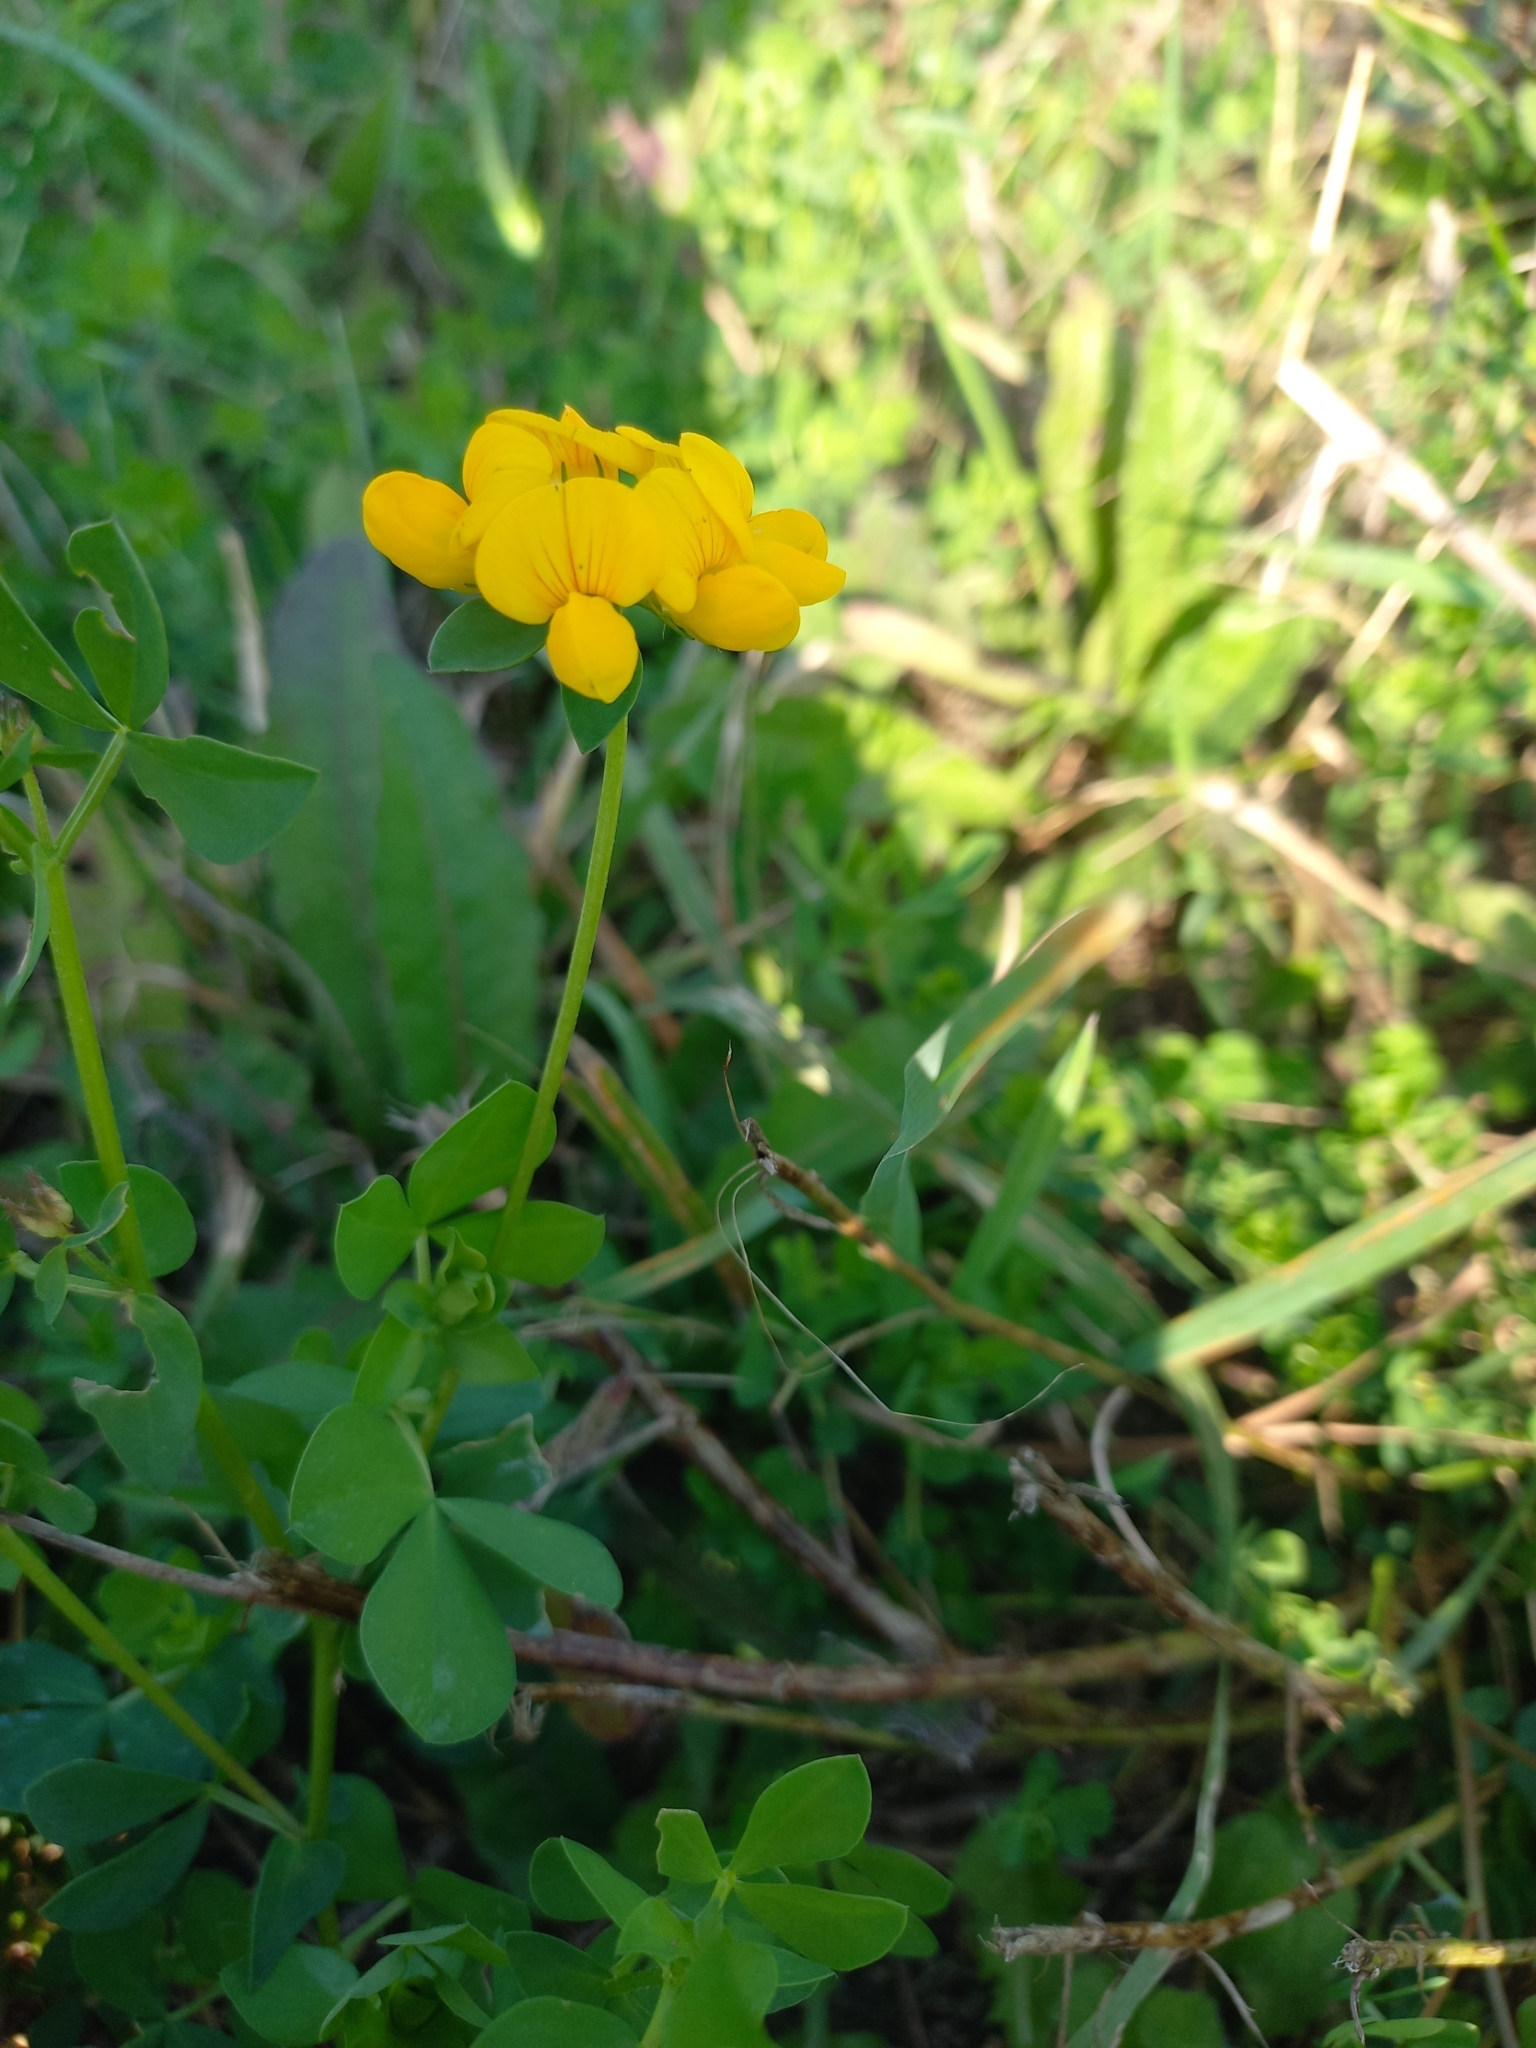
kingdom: Plantae
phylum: Tracheophyta
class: Magnoliopsida
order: Fabales
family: Fabaceae
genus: Lotus
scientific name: Lotus corniculatus
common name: Common bird's-foot-trefoil
